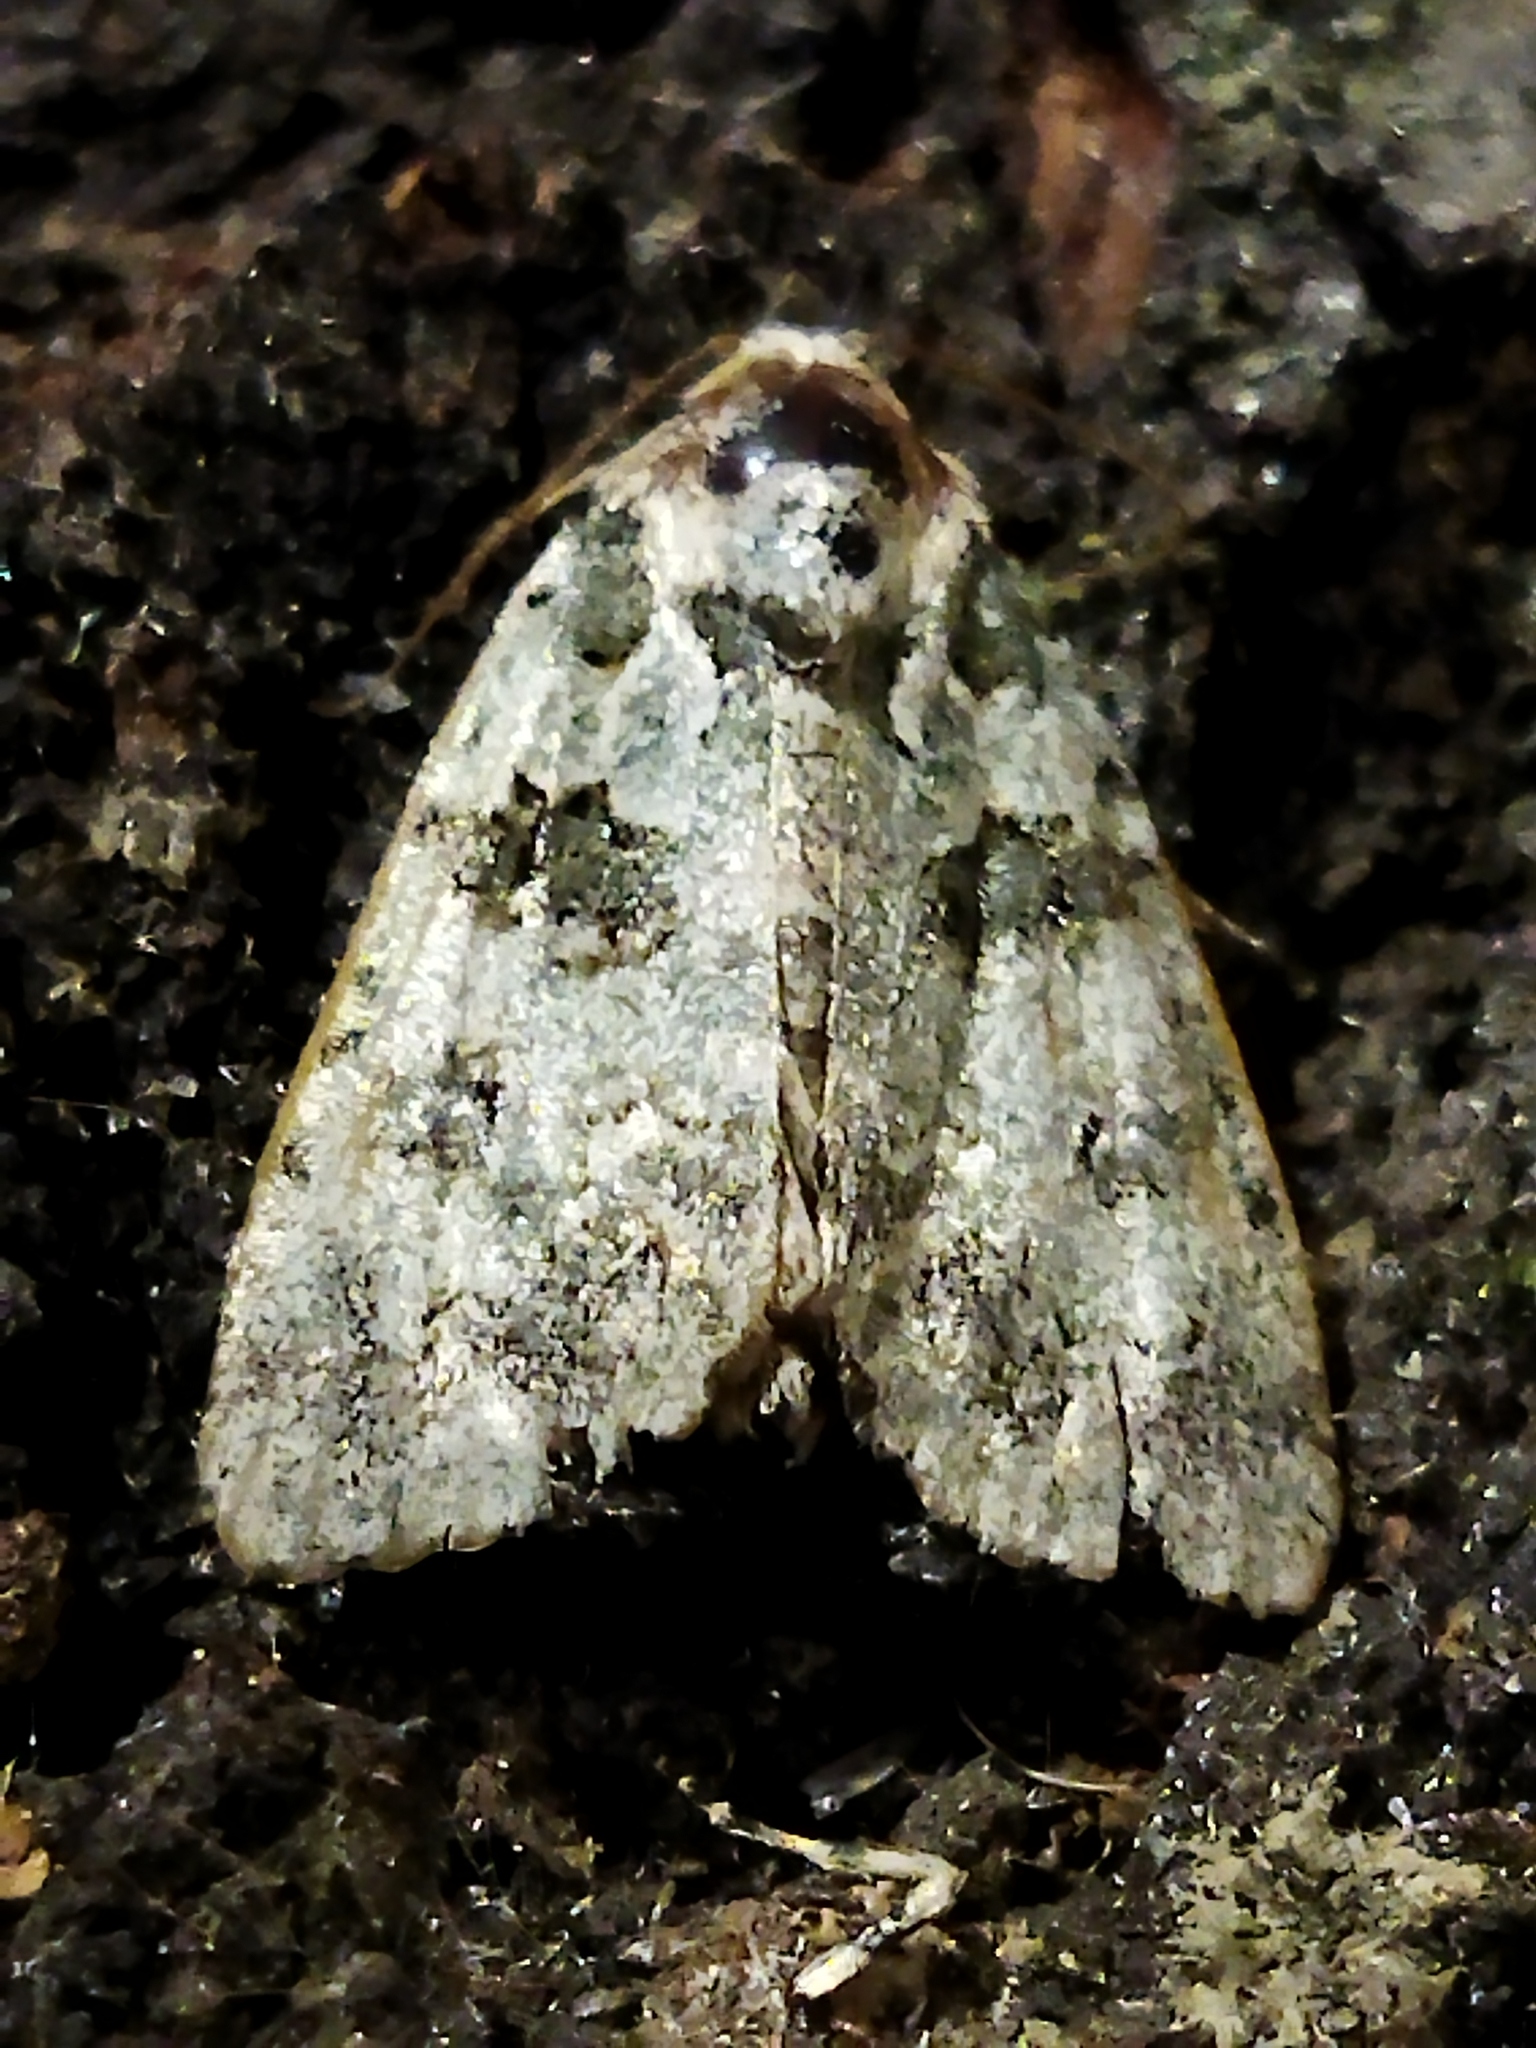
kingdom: Plantae
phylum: Chlorophyta
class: Ulvophyceae
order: Bryopsidales
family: Bryopsidaceae
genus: Bryopsis
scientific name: Bryopsis
